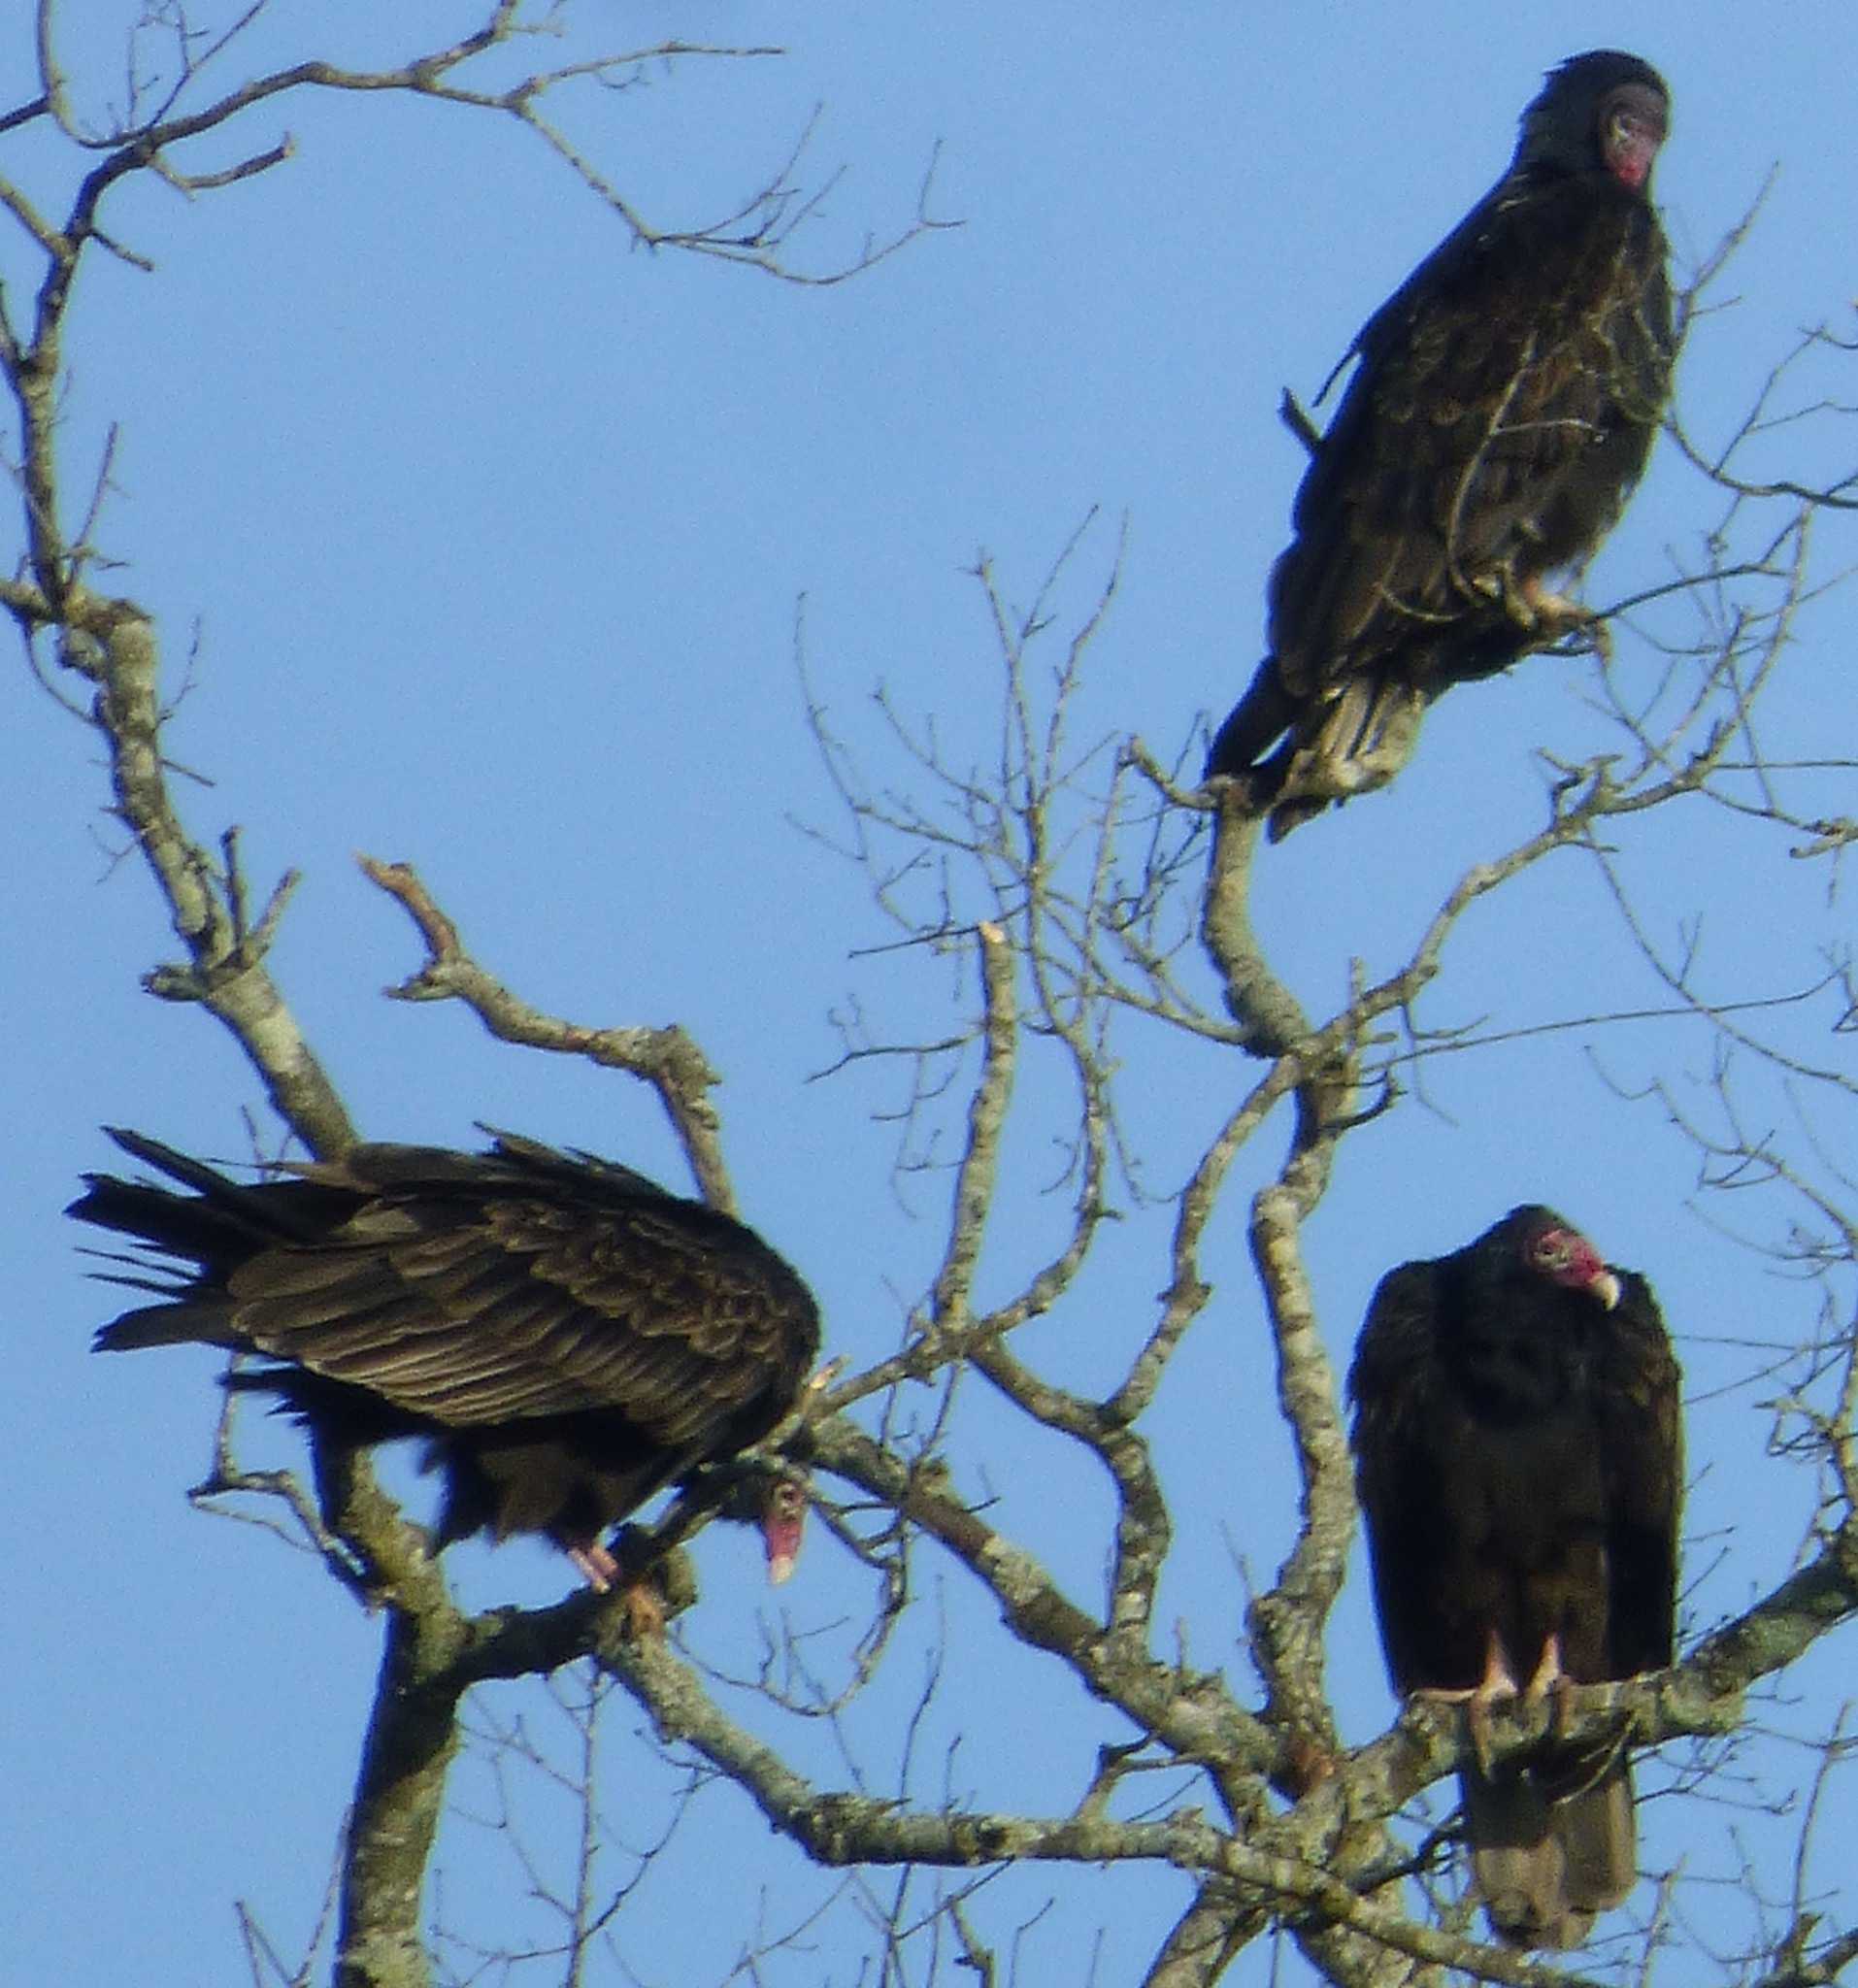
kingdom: Animalia
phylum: Chordata
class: Aves
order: Accipitriformes
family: Cathartidae
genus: Cathartes
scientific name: Cathartes aura
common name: Turkey vulture
